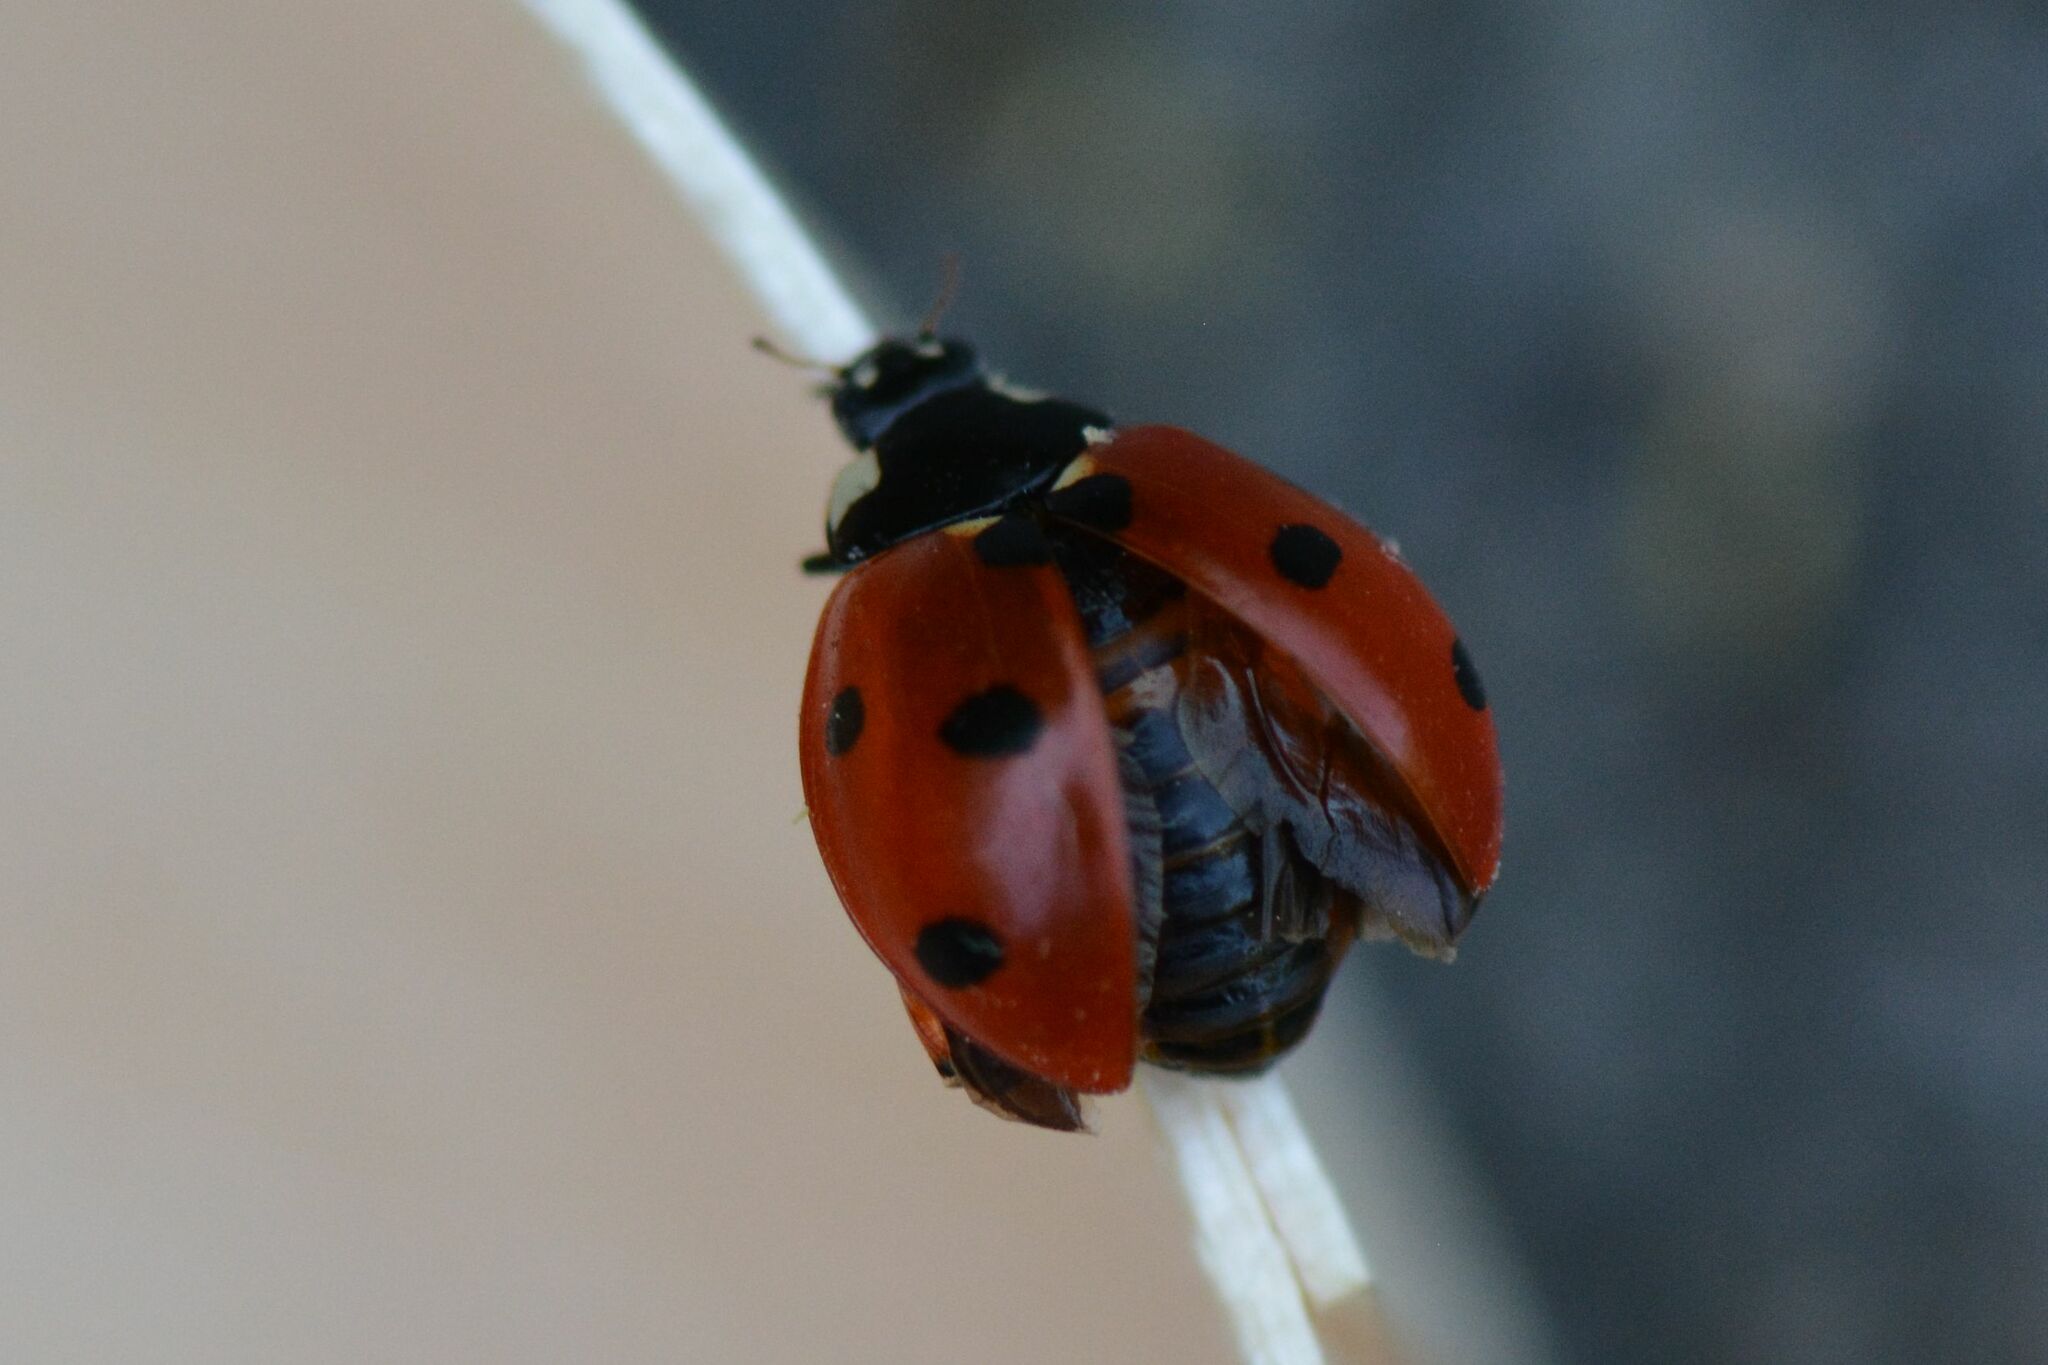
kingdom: Animalia
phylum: Arthropoda
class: Insecta
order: Coleoptera
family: Coccinellidae
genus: Coccinella
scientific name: Coccinella septempunctata
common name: Sevenspotted lady beetle
